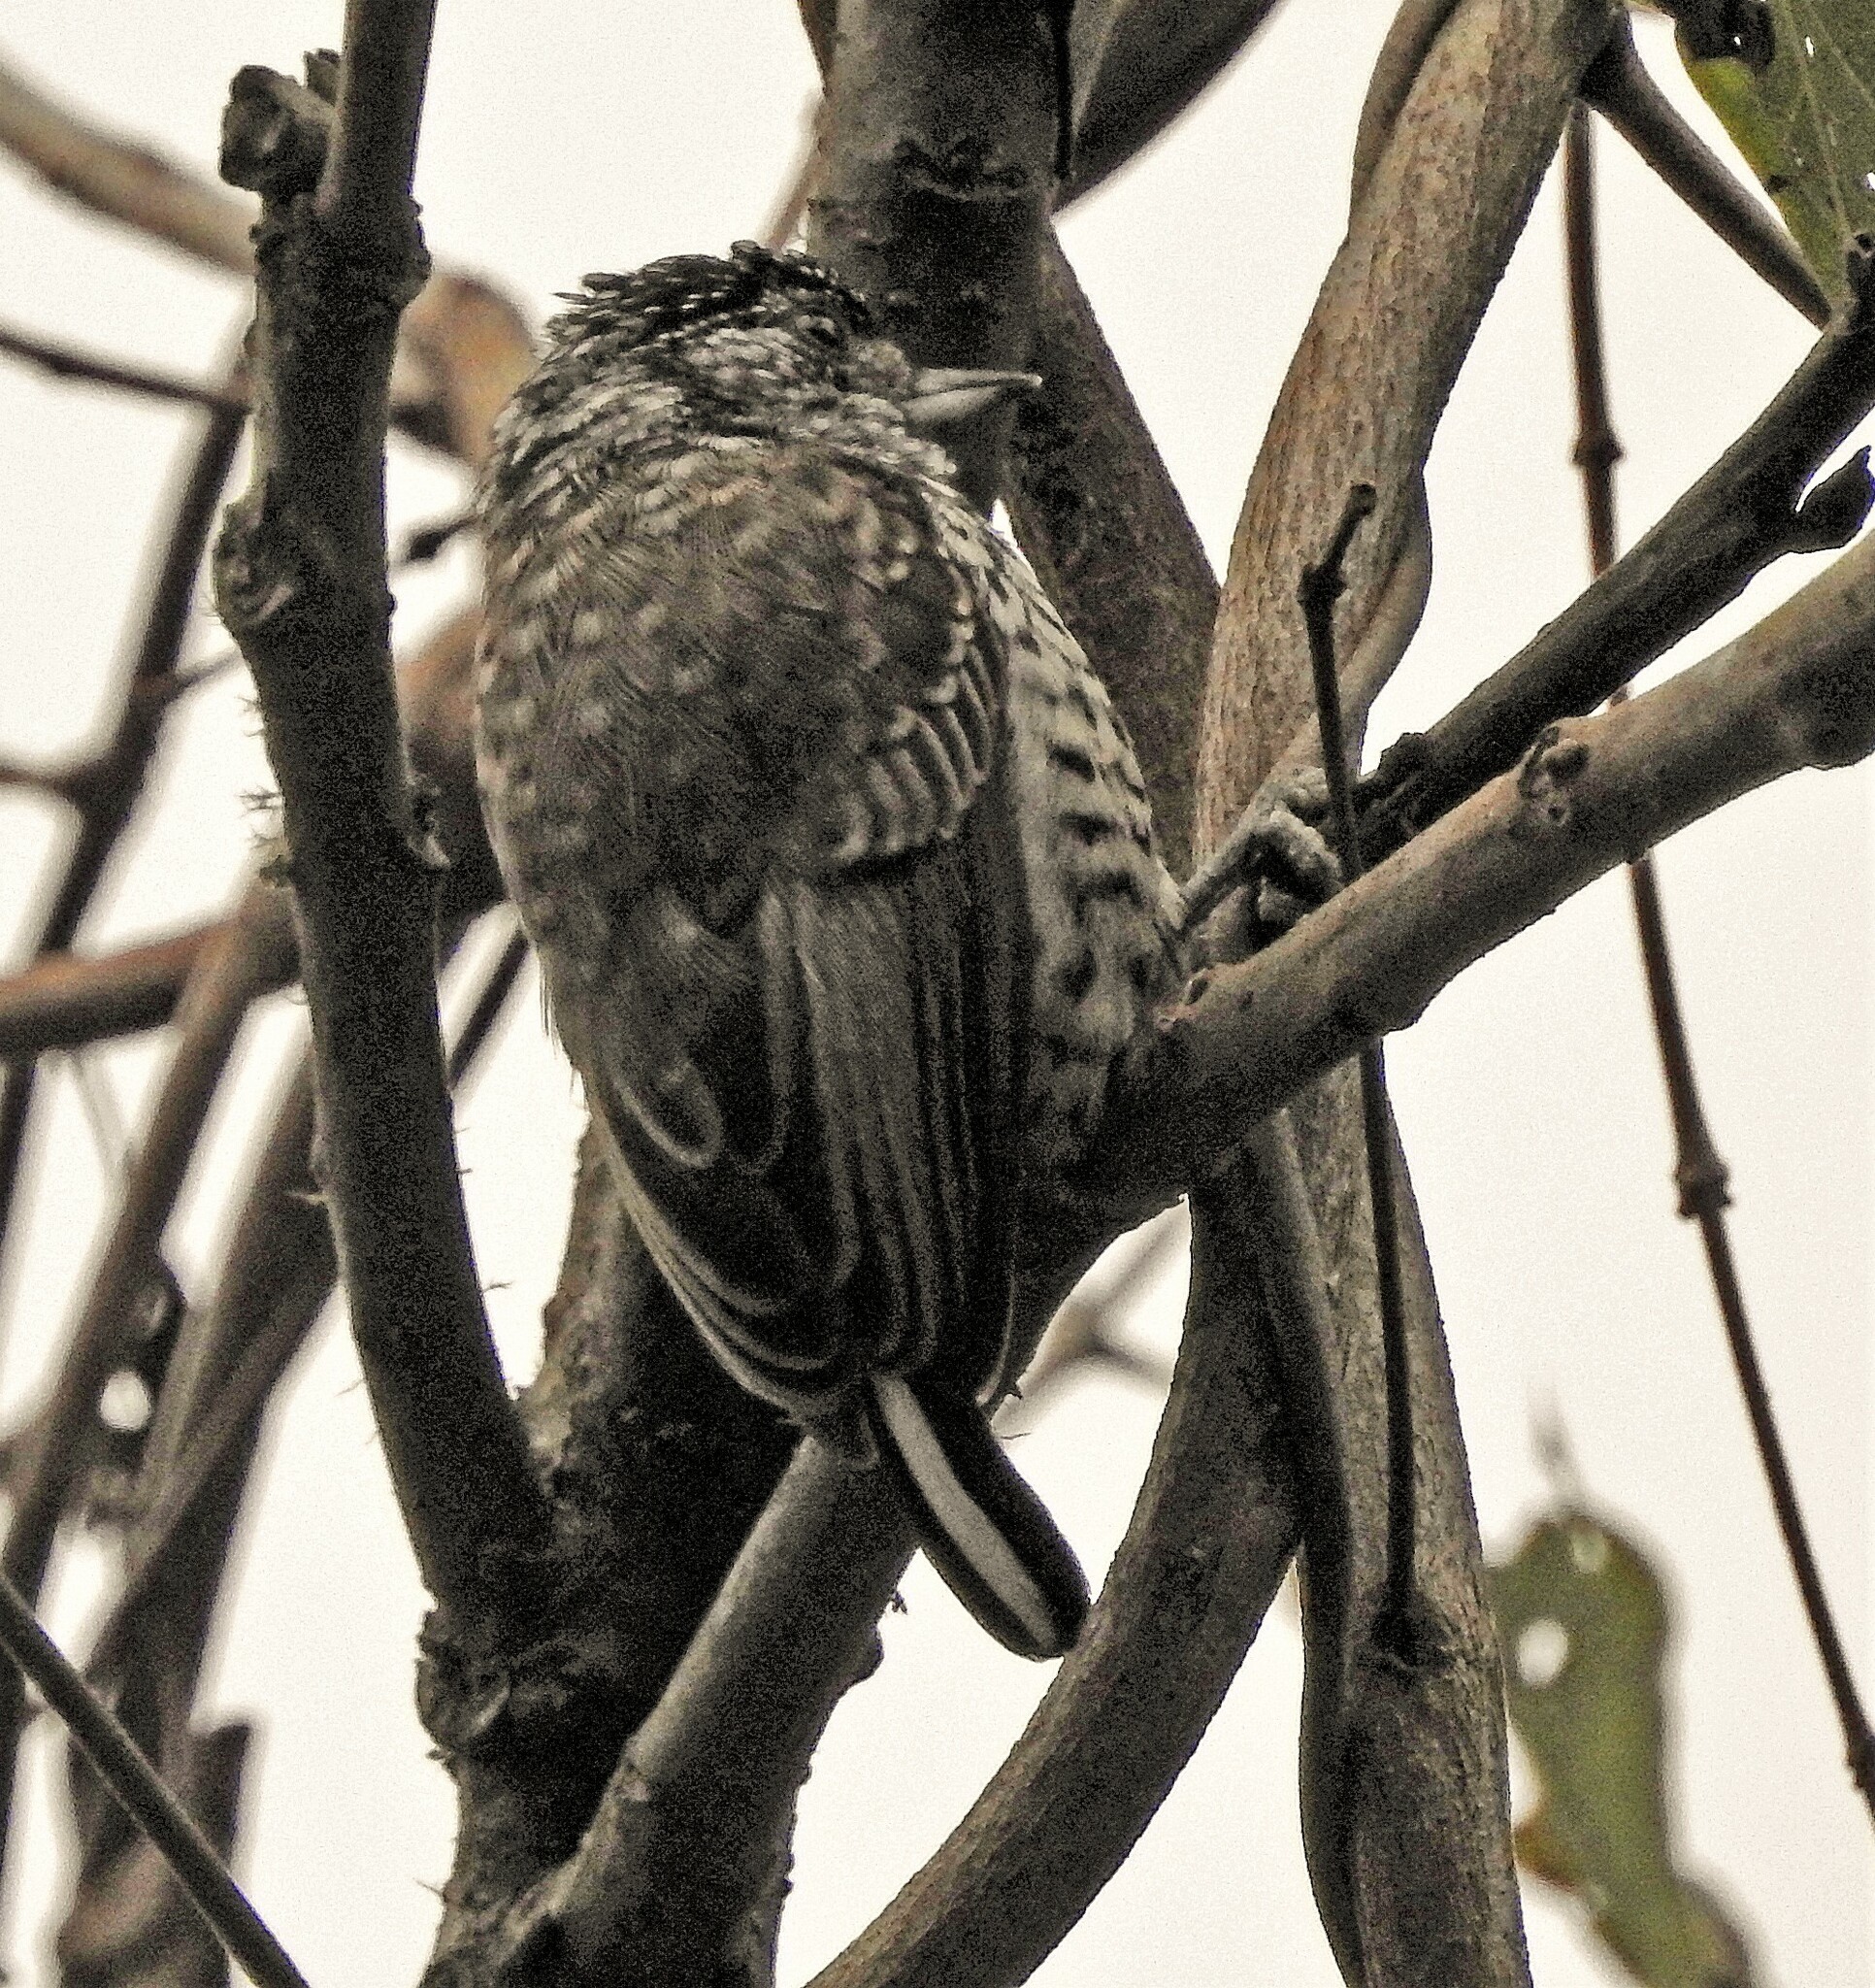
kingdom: Animalia
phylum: Chordata
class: Aves
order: Piciformes
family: Picidae
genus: Picumnus
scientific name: Picumnus cirratus
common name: White-barred piculet
